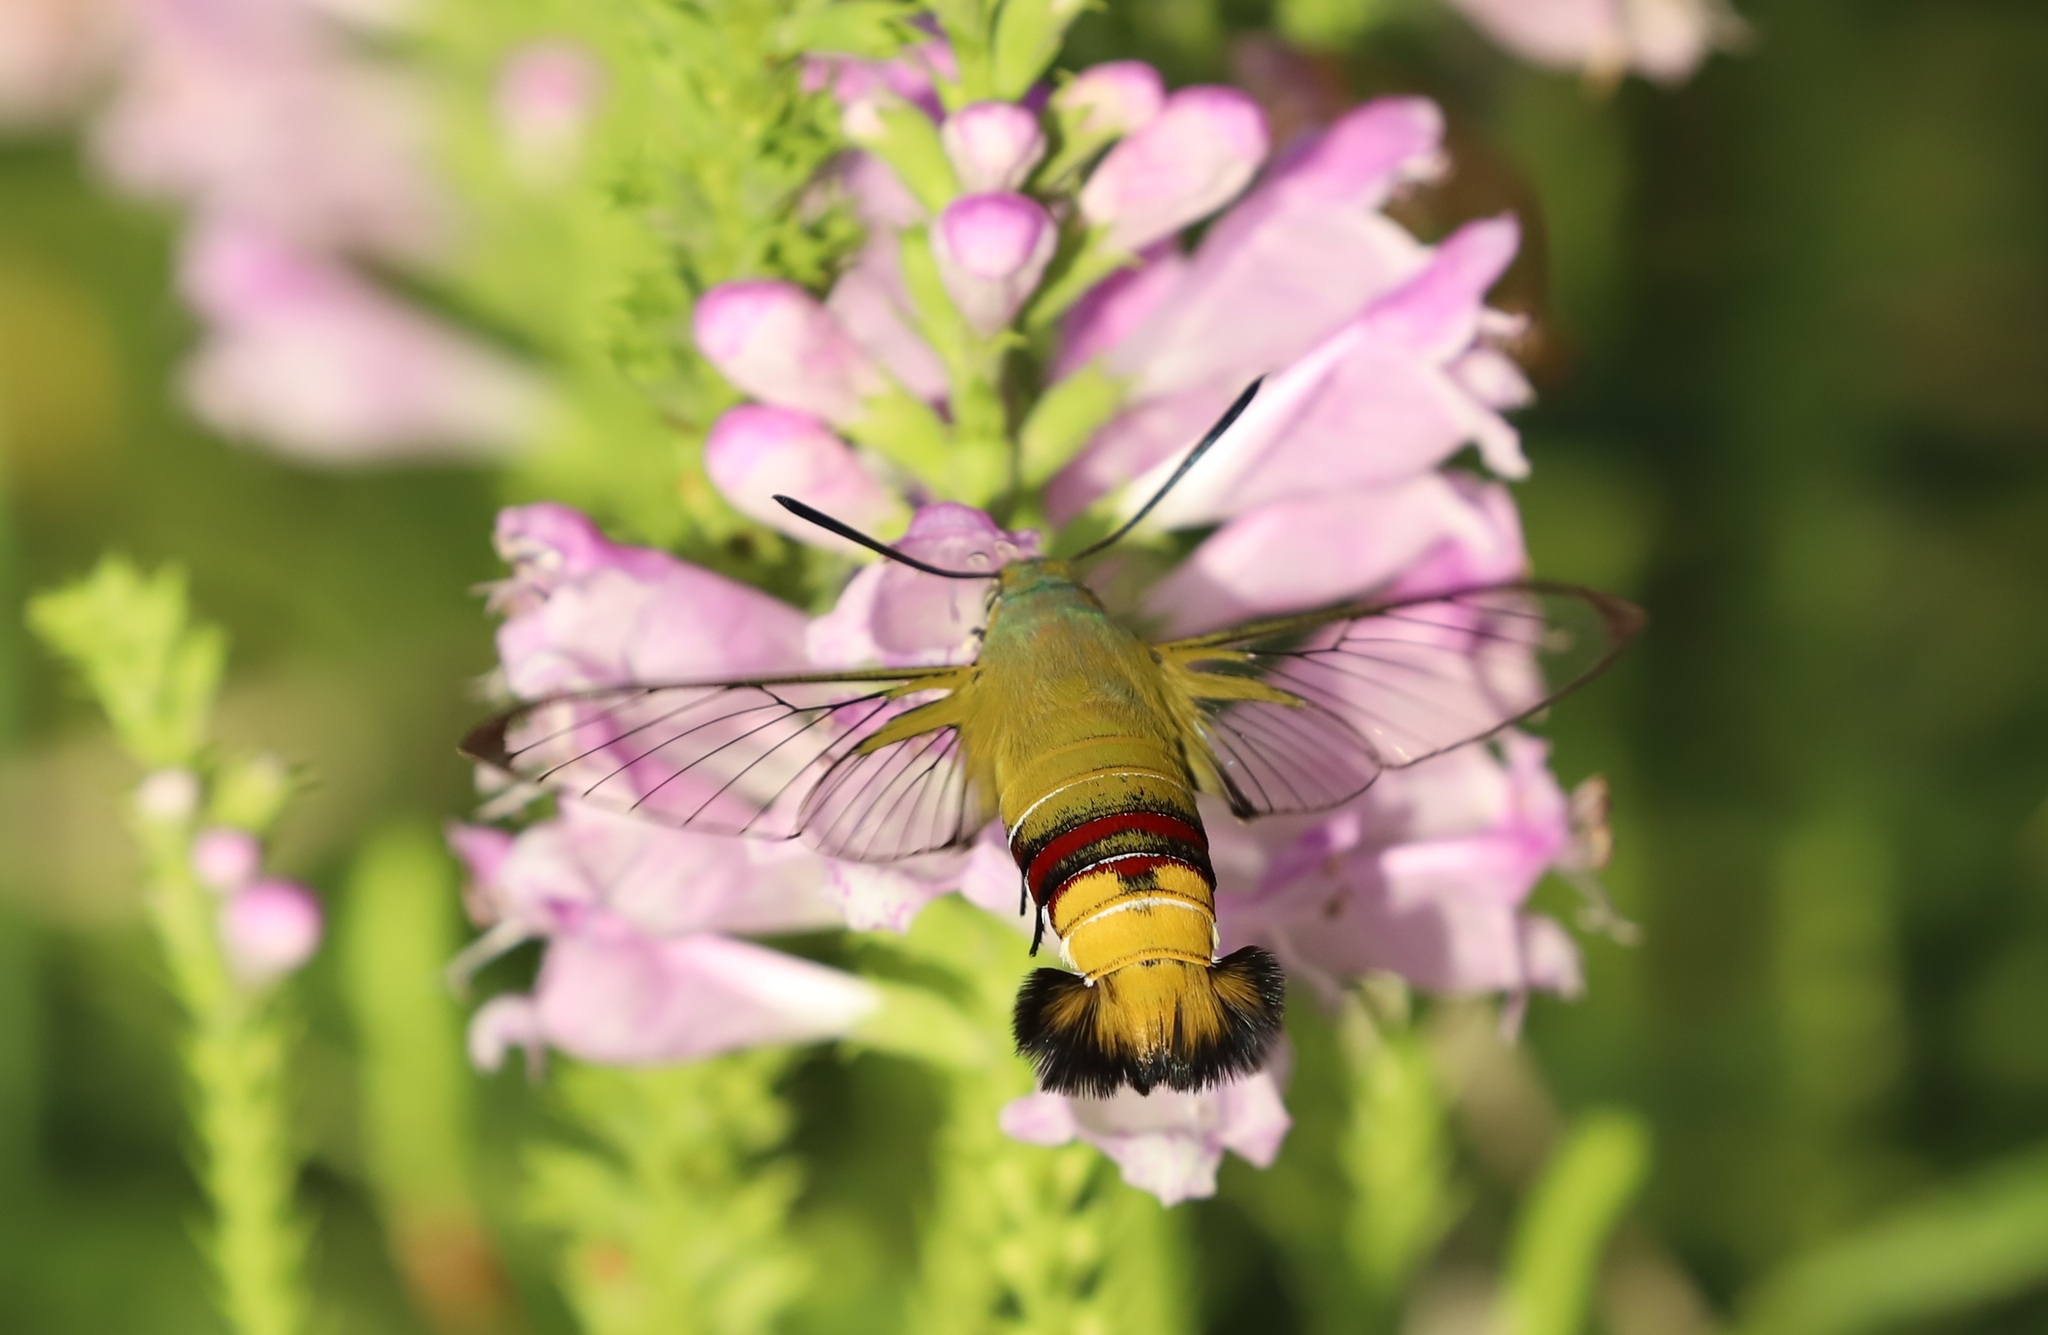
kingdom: Animalia
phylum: Arthropoda
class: Insecta
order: Lepidoptera
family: Sphingidae
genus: Cephonodes
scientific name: Cephonodes hylas
